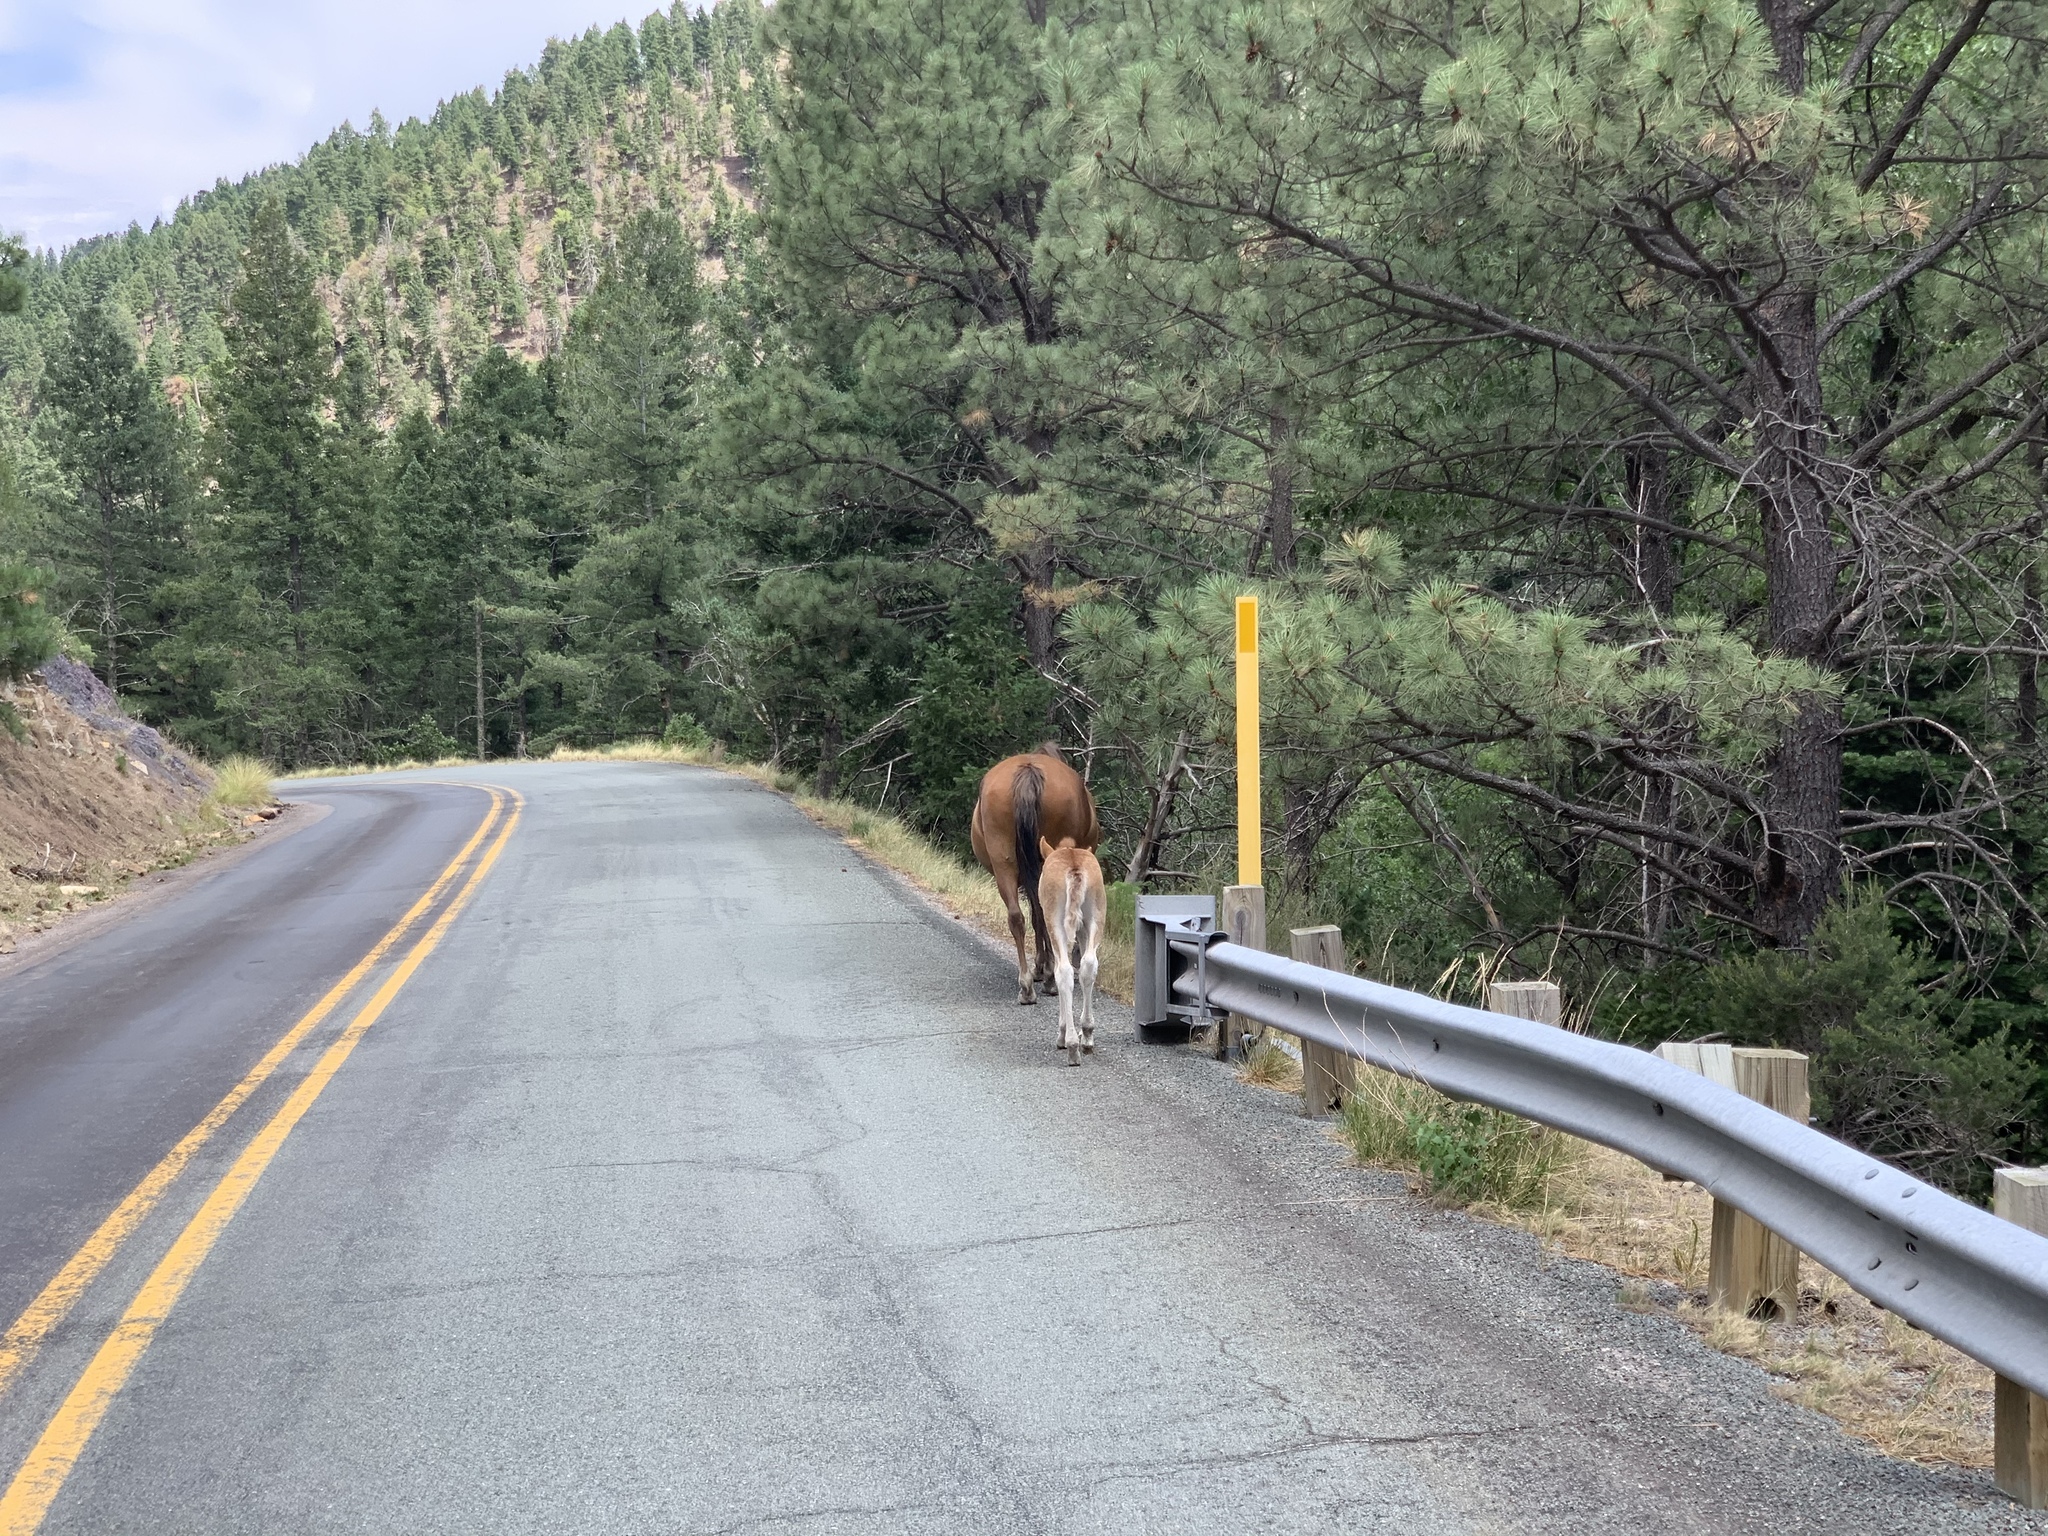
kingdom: Animalia
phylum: Chordata
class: Mammalia
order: Perissodactyla
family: Equidae
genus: Equus
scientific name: Equus caballus
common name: Horse
